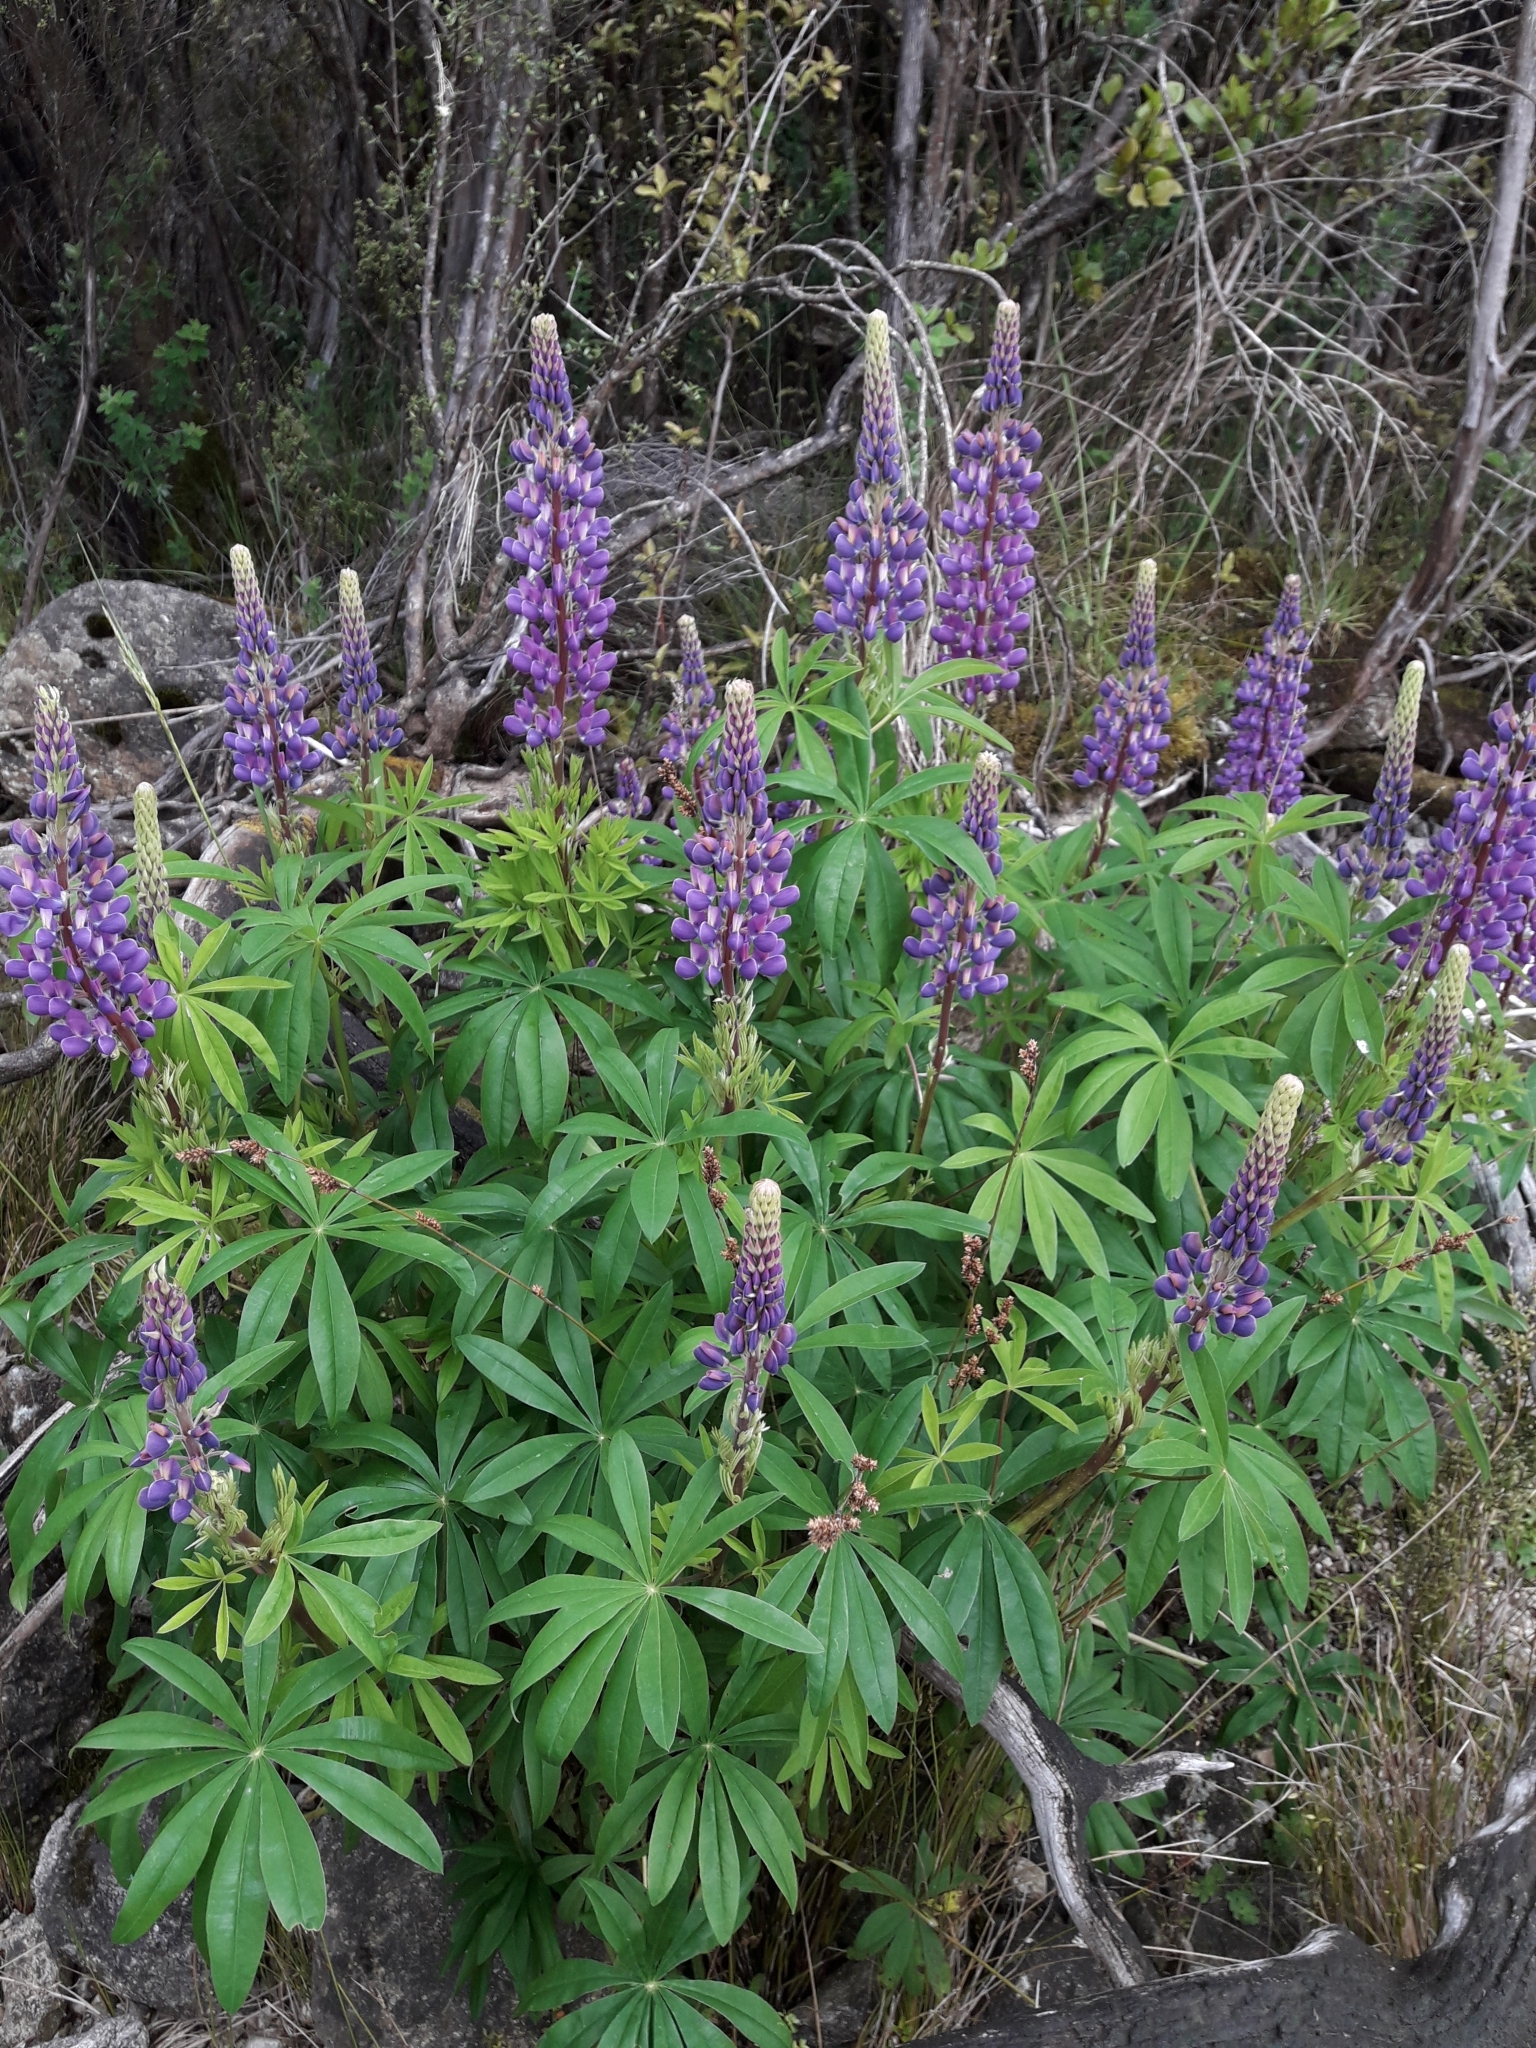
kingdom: Plantae
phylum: Tracheophyta
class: Magnoliopsida
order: Fabales
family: Fabaceae
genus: Lupinus
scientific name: Lupinus polyphyllus
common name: Garden lupin
